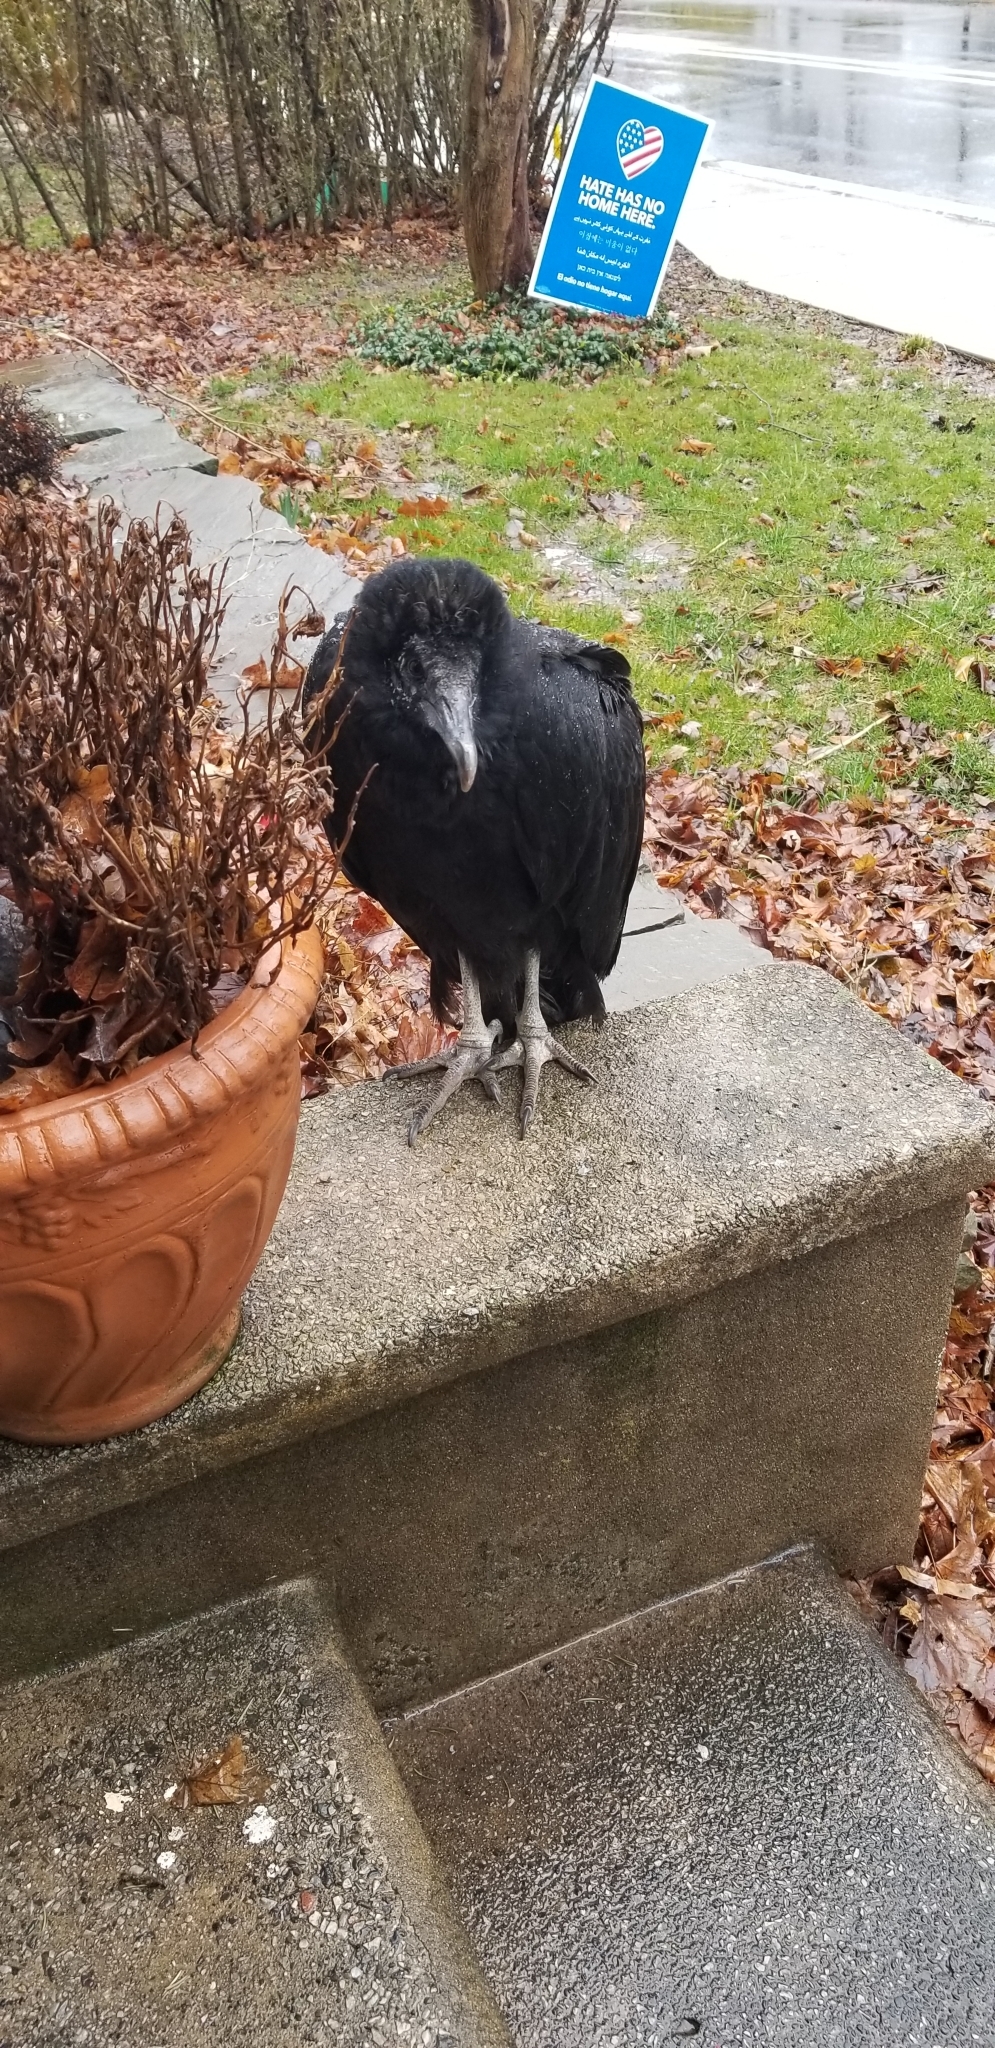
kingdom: Animalia
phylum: Chordata
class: Aves
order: Accipitriformes
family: Cathartidae
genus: Coragyps
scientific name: Coragyps atratus
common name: Black vulture
